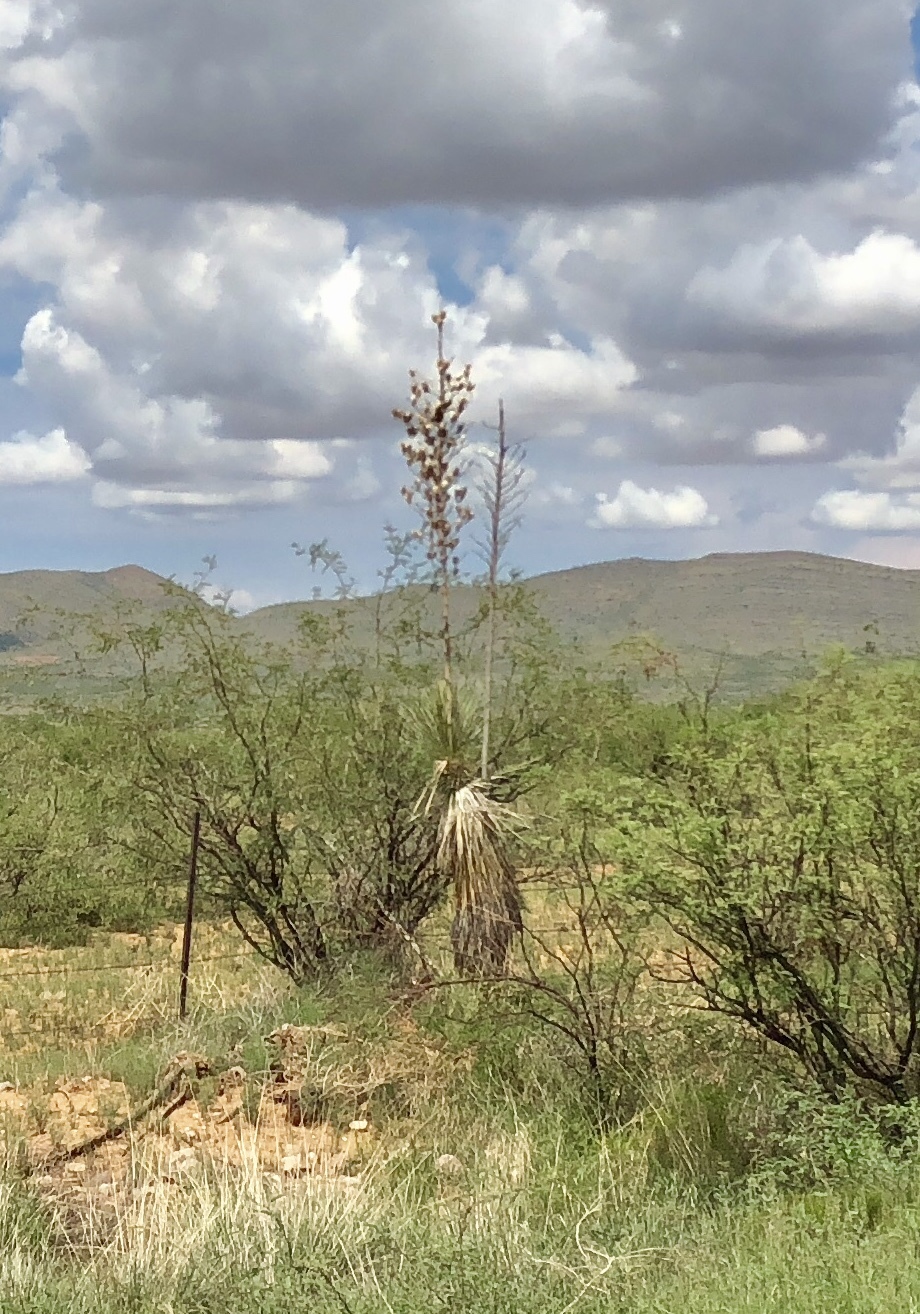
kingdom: Plantae
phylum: Tracheophyta
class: Liliopsida
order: Asparagales
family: Asparagaceae
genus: Yucca
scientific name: Yucca elata
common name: Palmella
